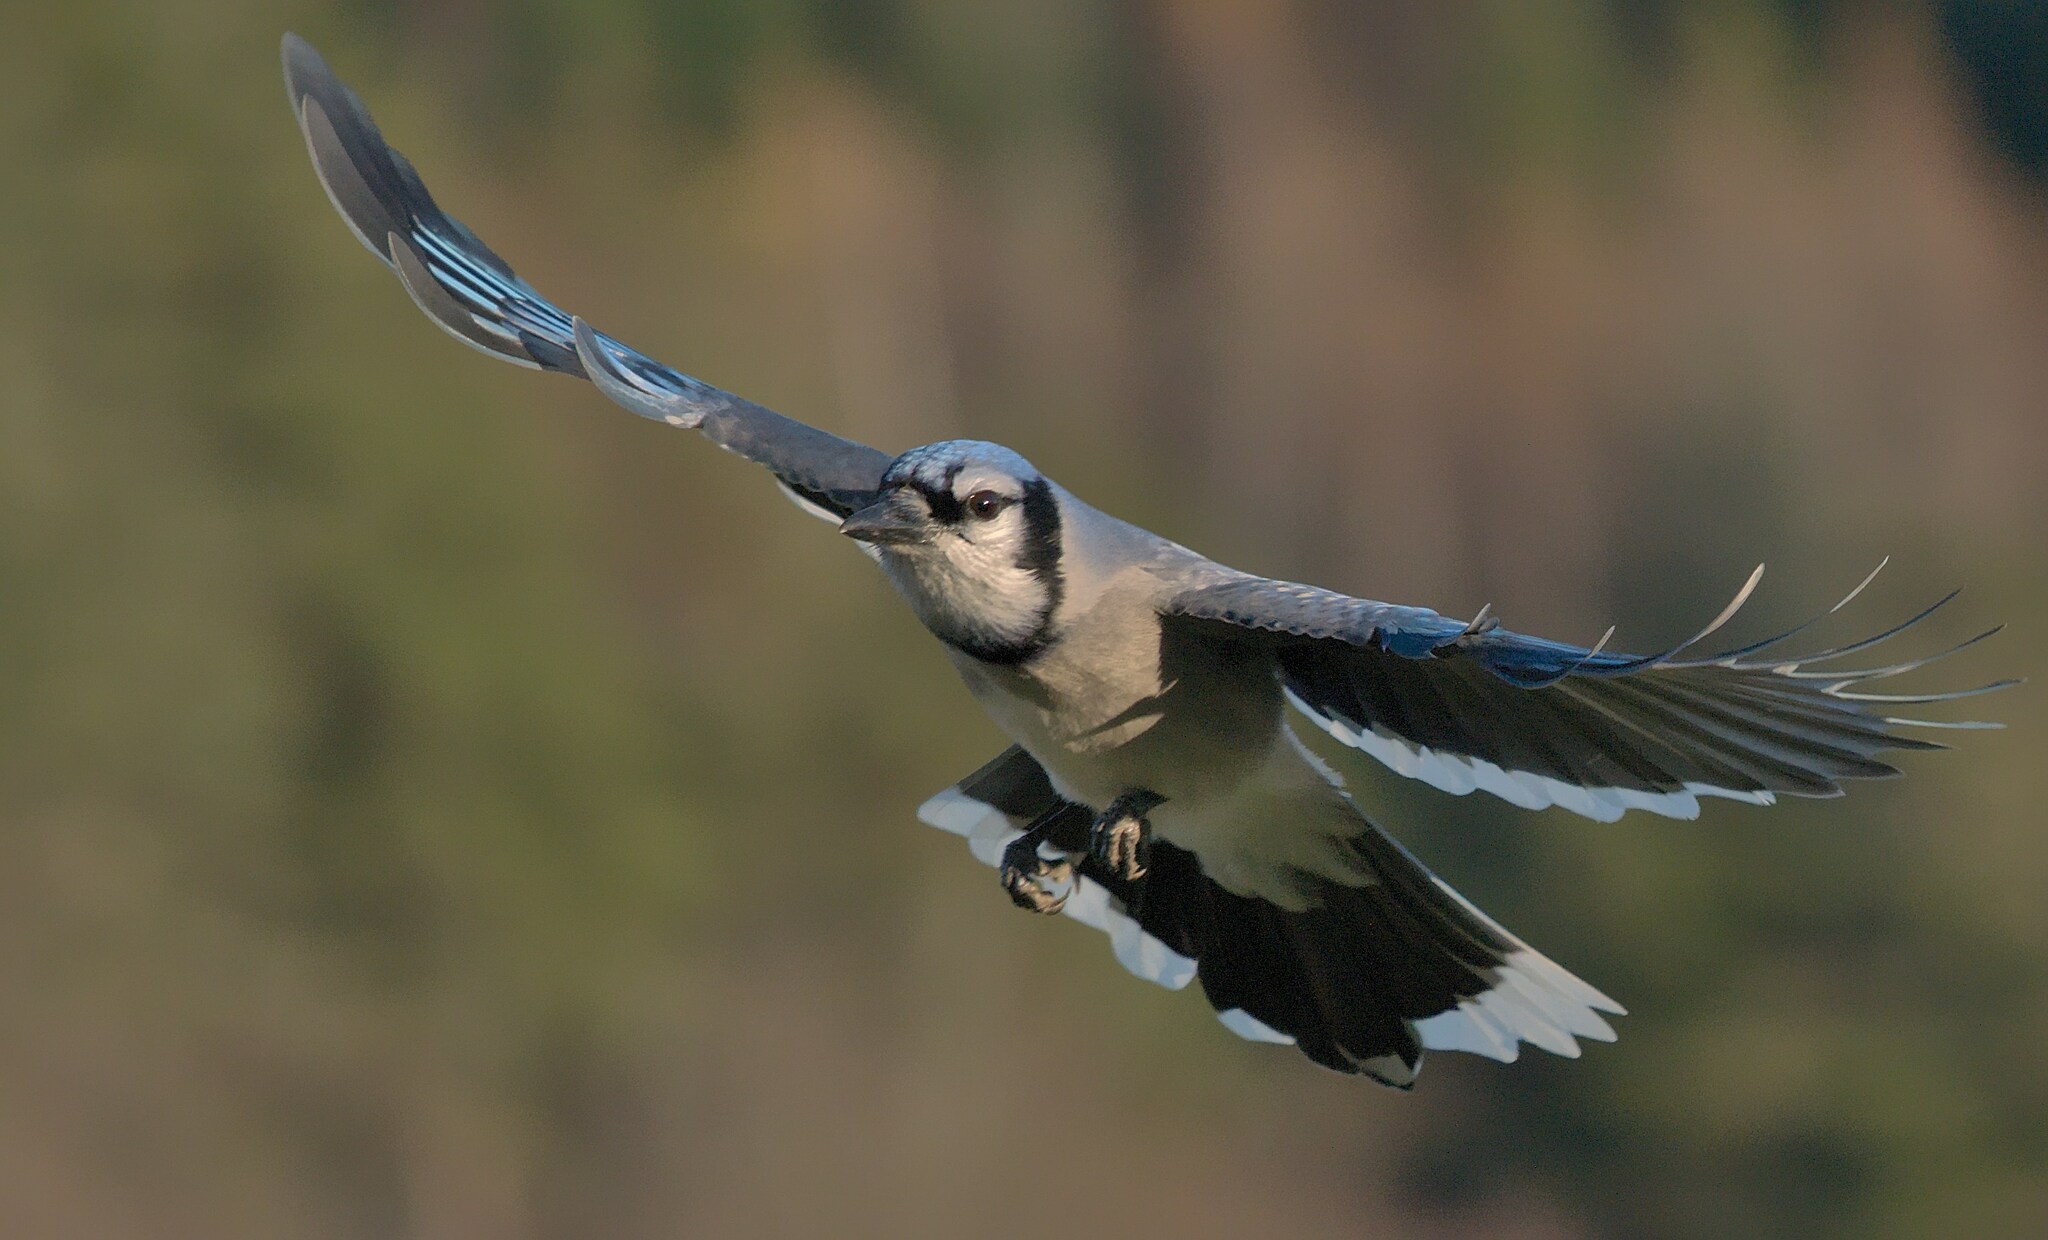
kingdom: Animalia
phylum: Chordata
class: Aves
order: Passeriformes
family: Corvidae
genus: Cyanocitta
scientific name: Cyanocitta cristata
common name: Blue jay
